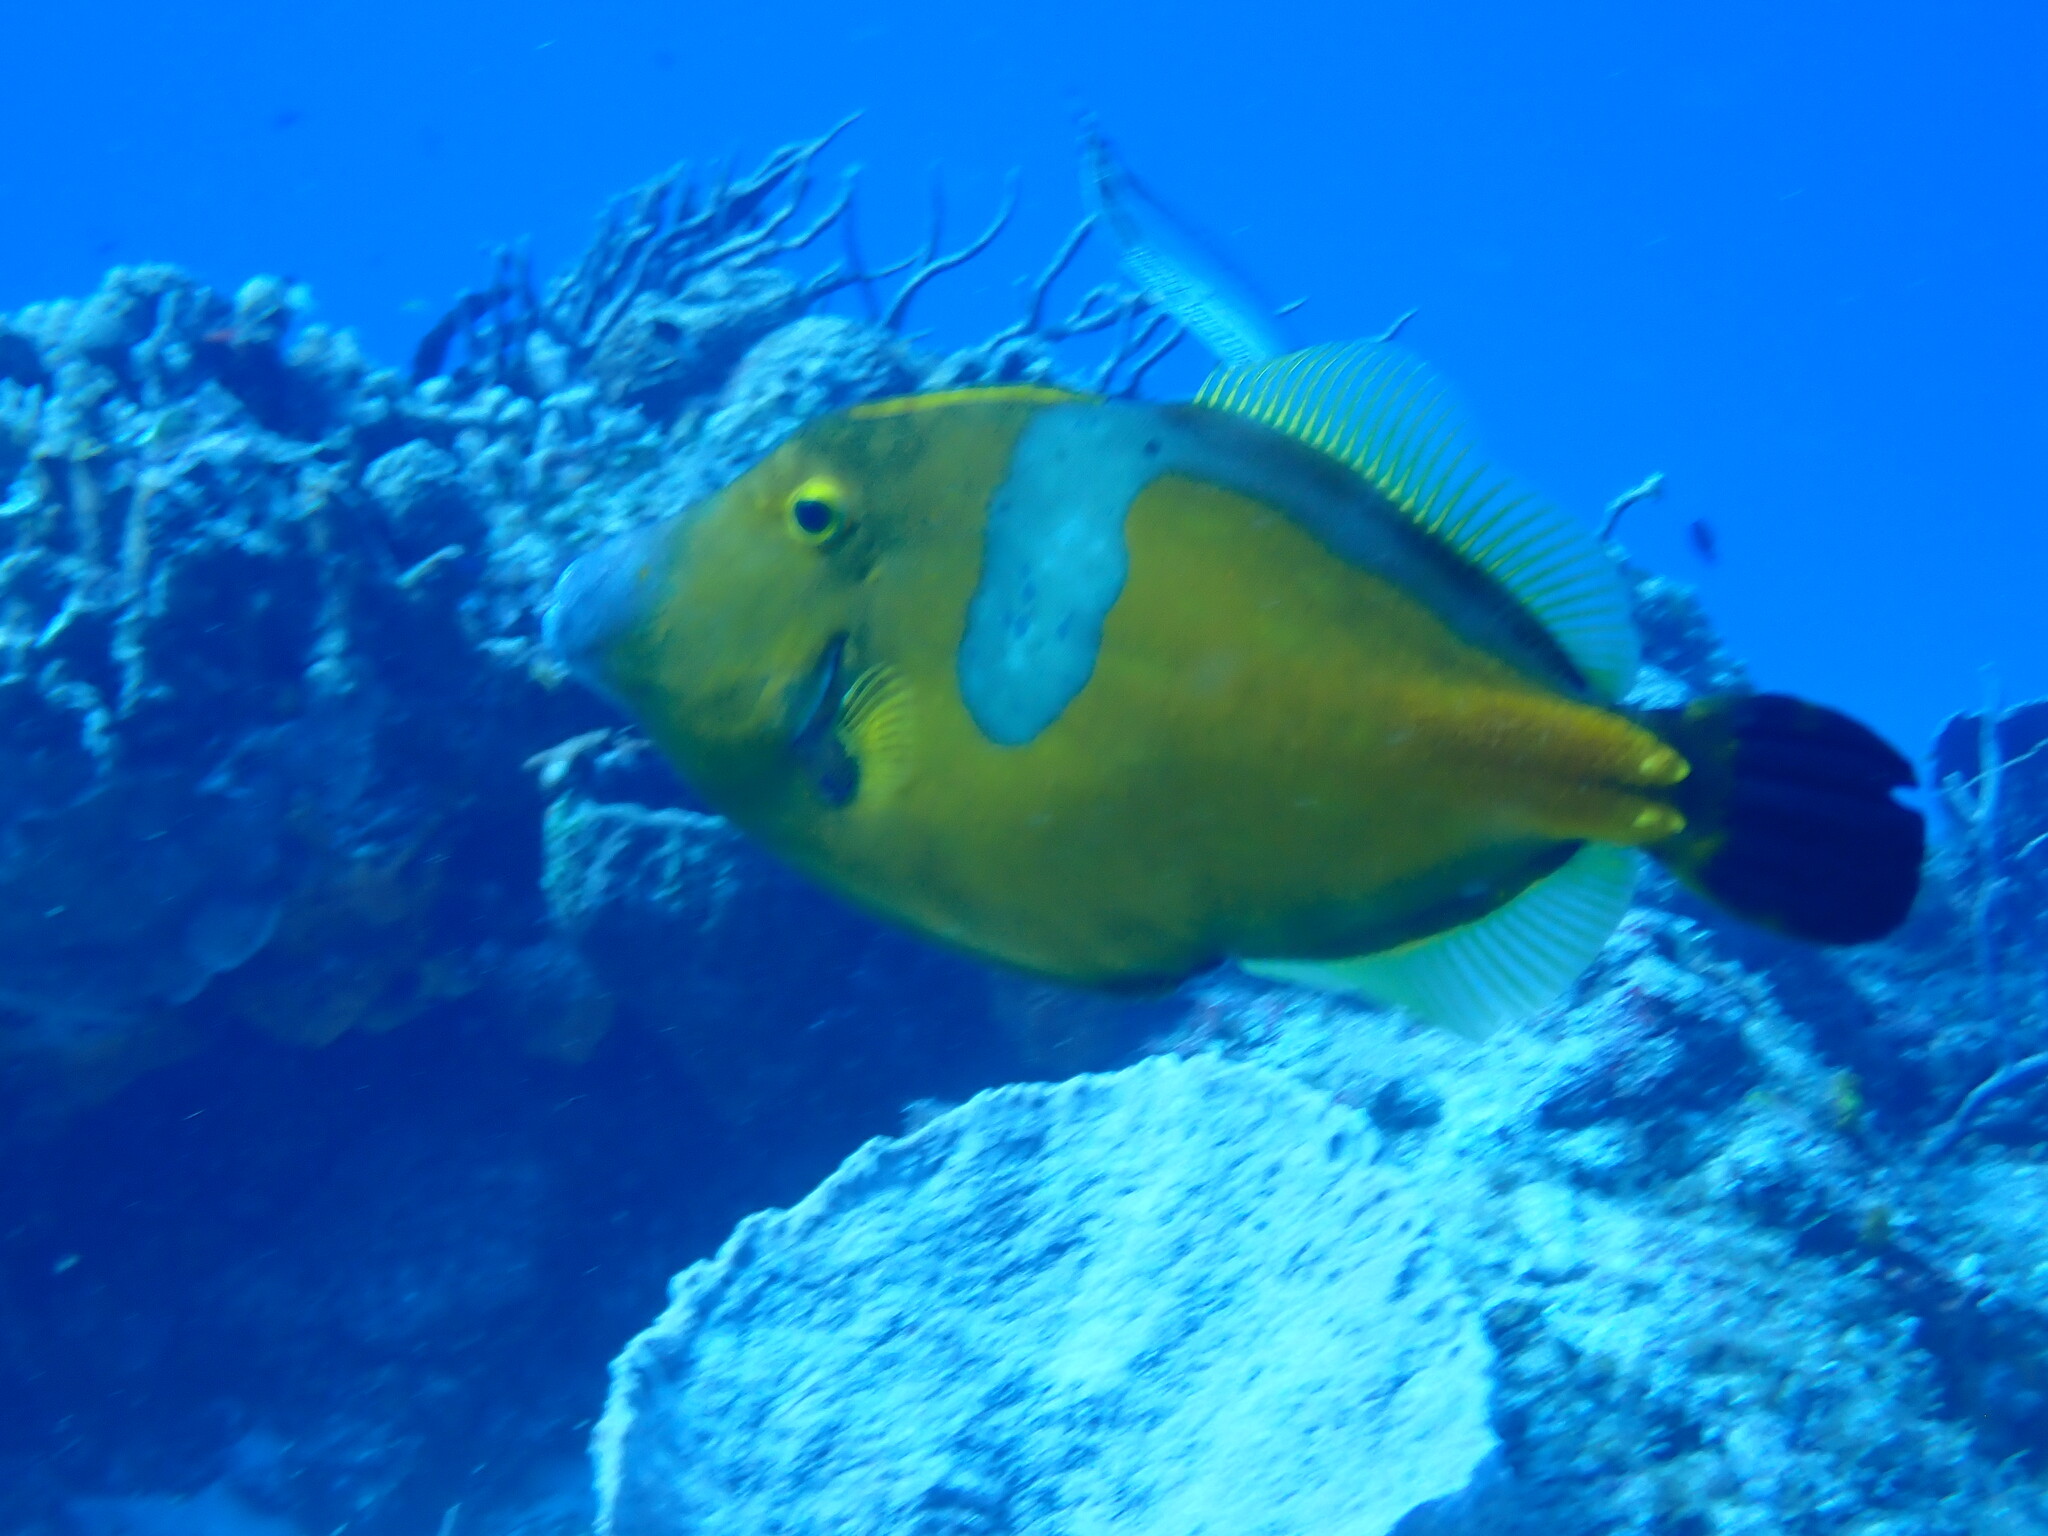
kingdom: Animalia
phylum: Chordata
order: Tetraodontiformes
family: Monacanthidae
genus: Cantherhines
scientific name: Cantherhines macrocerus
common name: Whitespotted filefish
